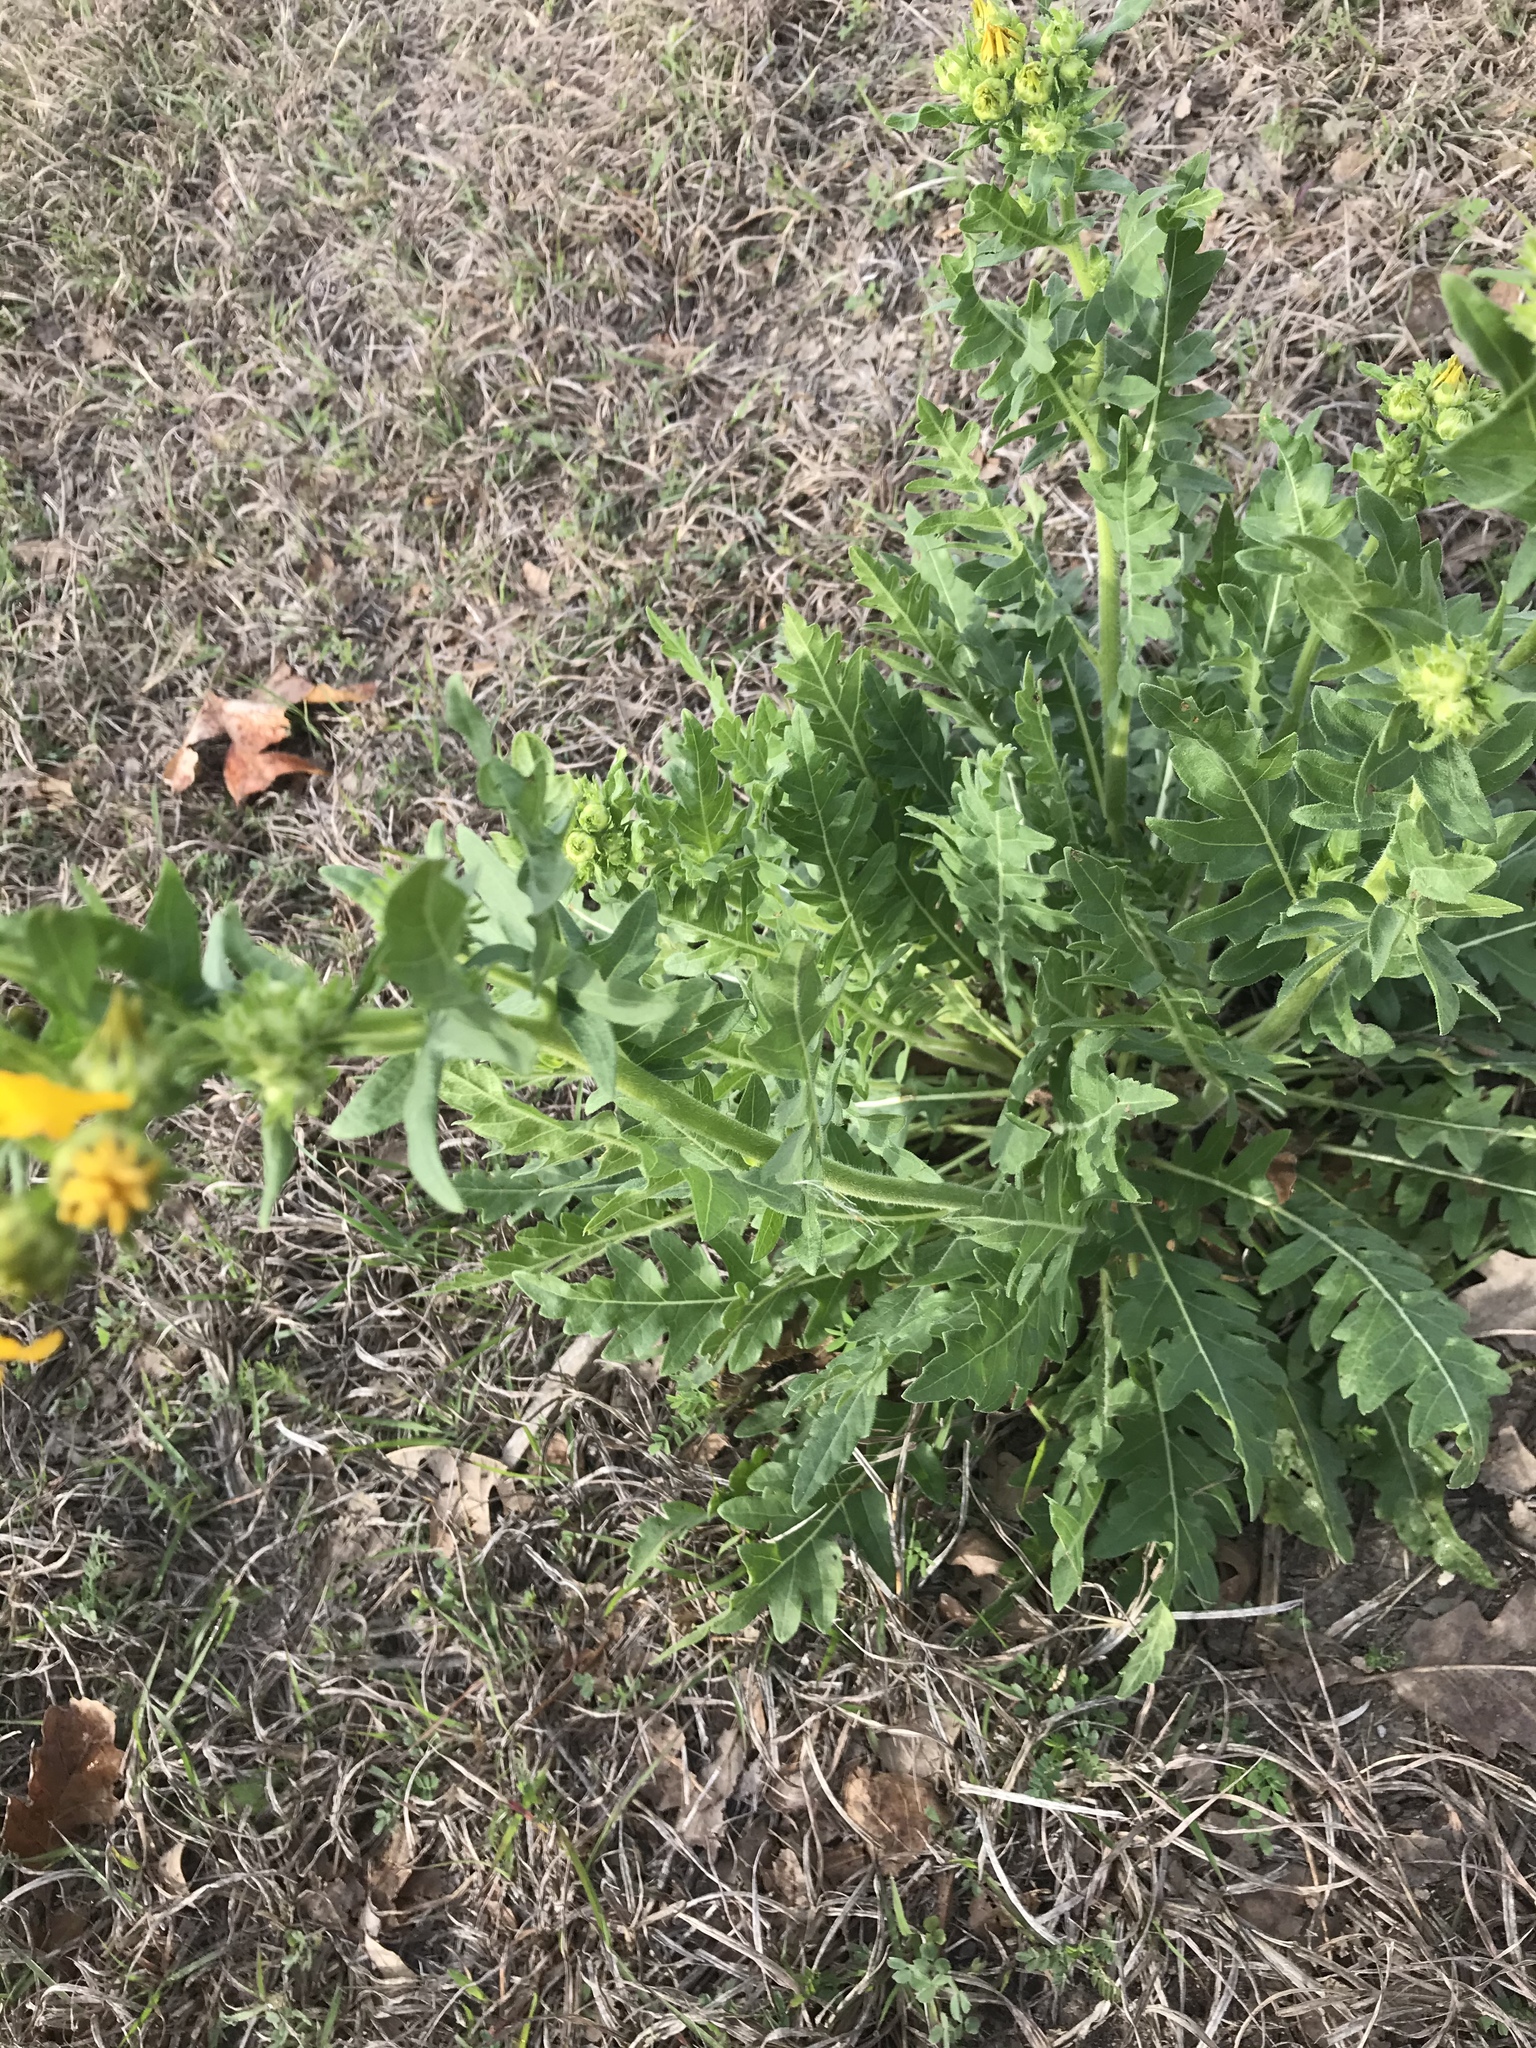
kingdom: Plantae
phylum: Tracheophyta
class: Magnoliopsida
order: Asterales
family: Asteraceae
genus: Engelmannia
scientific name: Engelmannia peristenia
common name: Engelmann's daisy
